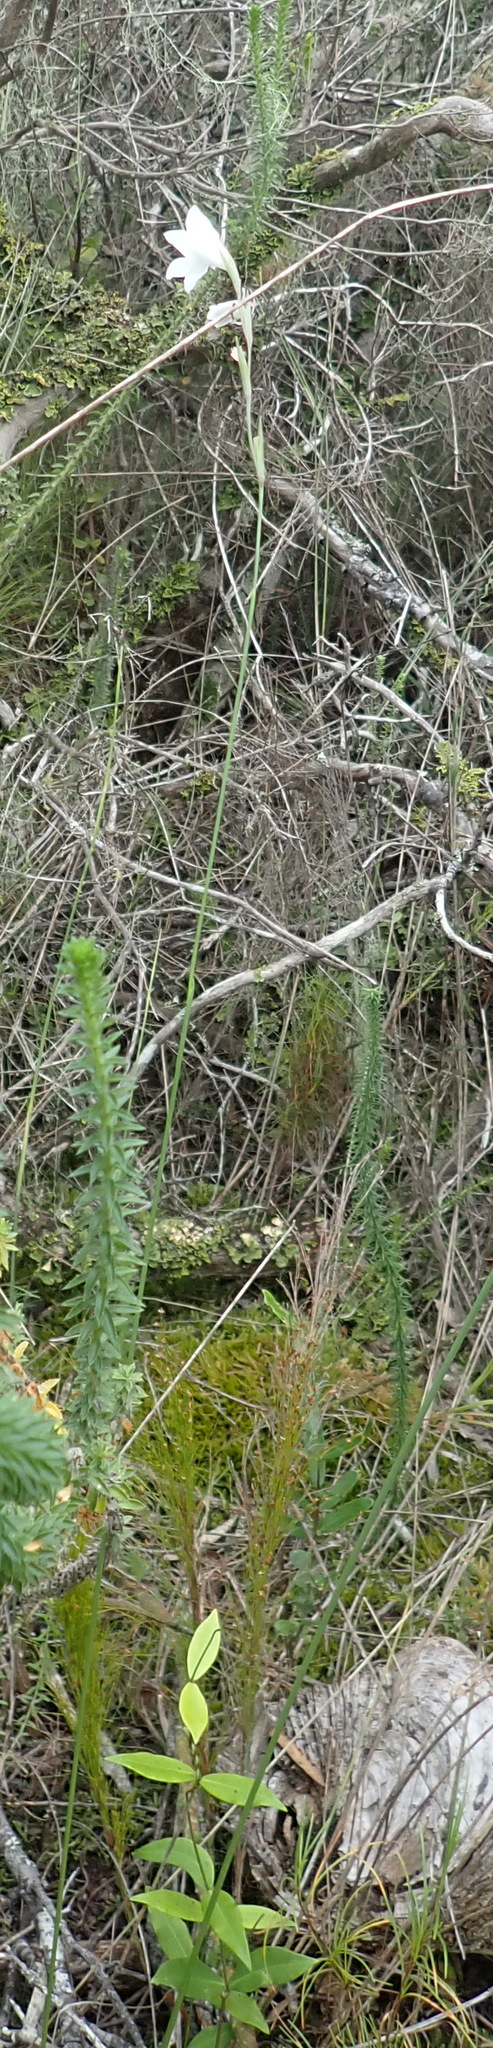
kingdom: Plantae
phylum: Tracheophyta
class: Liliopsida
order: Asparagales
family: Iridaceae
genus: Gladiolus
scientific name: Gladiolus vaginatus
